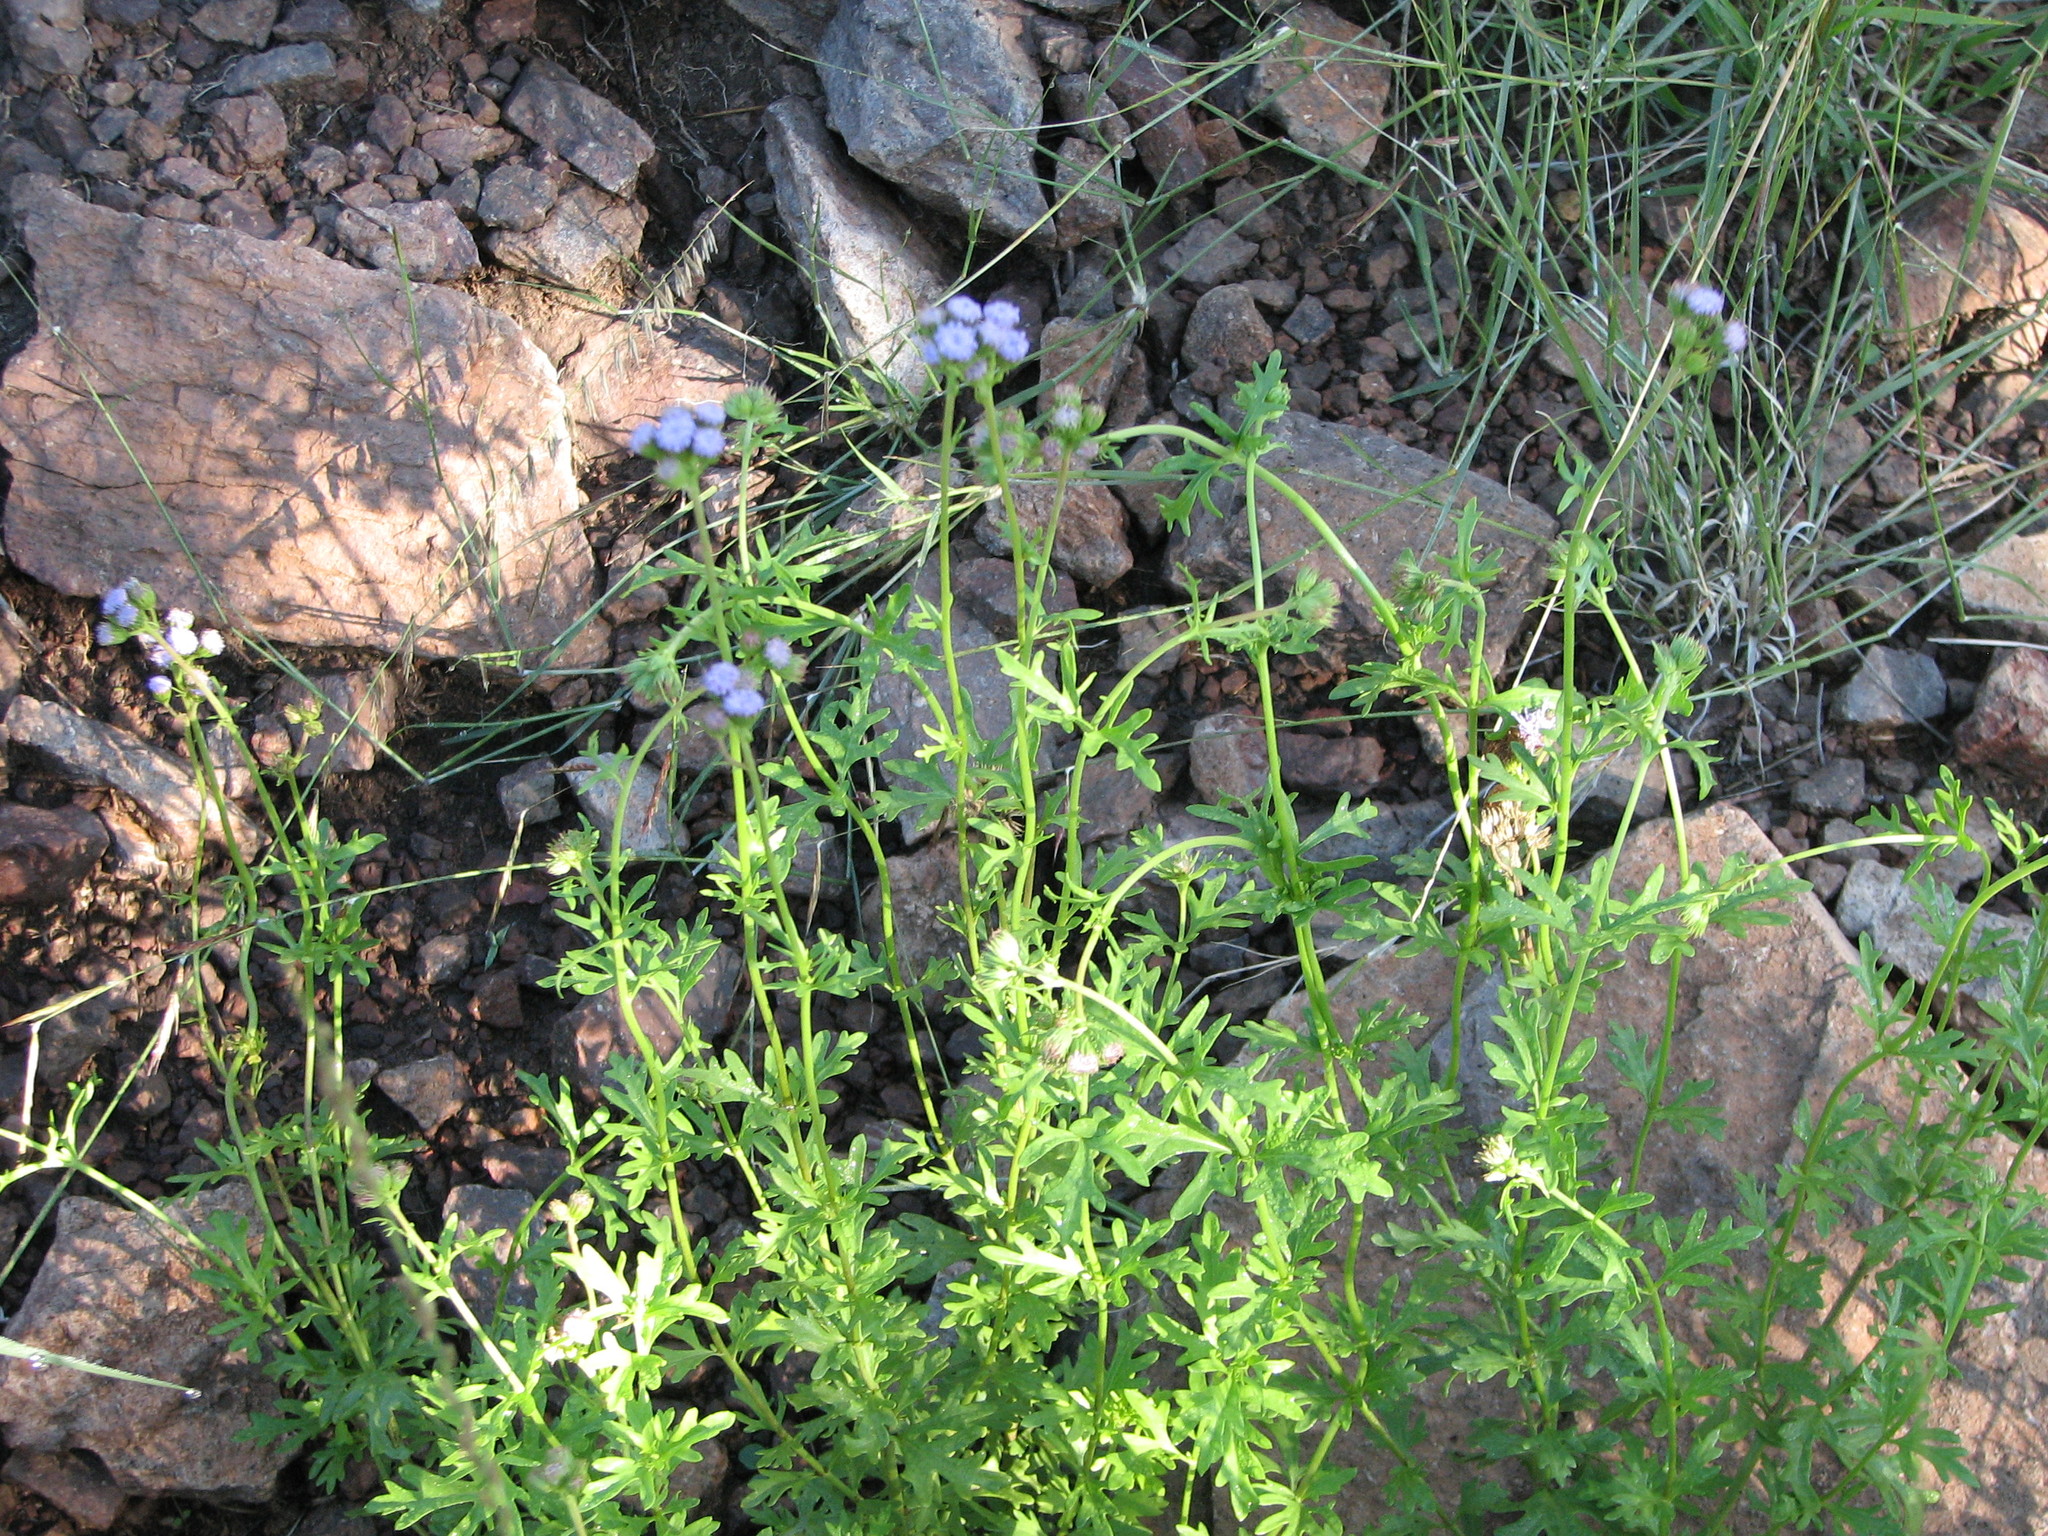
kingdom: Plantae
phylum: Tracheophyta
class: Magnoliopsida
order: Asterales
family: Asteraceae
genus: Conoclinium
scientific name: Conoclinium dissectum
